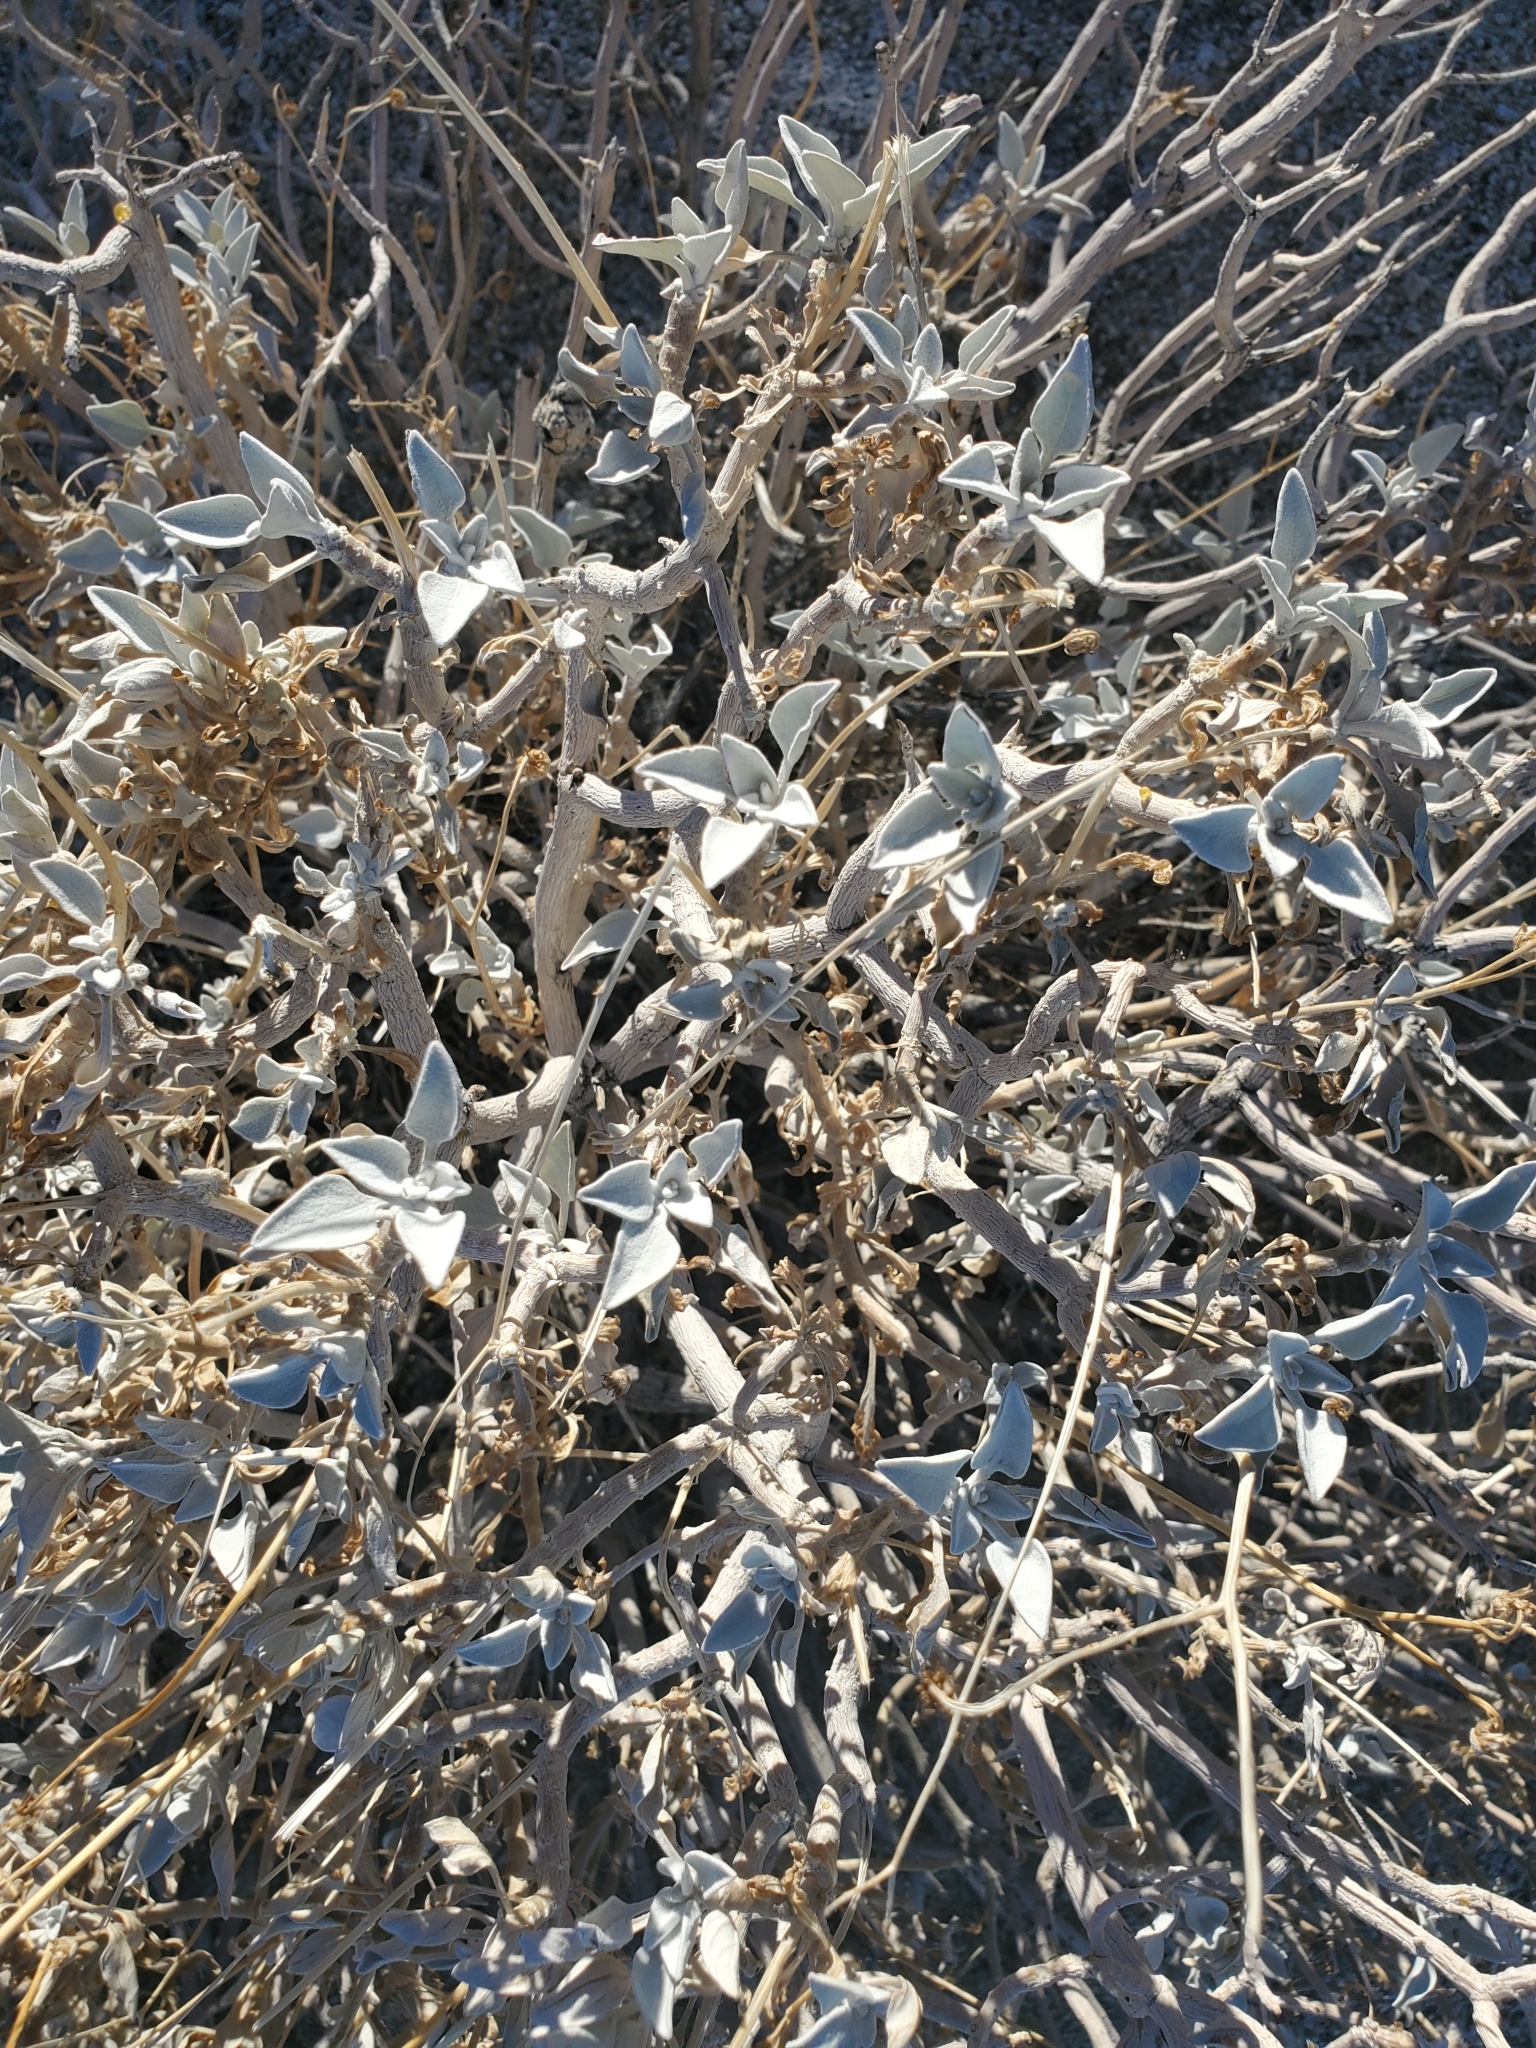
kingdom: Plantae
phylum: Tracheophyta
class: Magnoliopsida
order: Asterales
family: Asteraceae
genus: Encelia
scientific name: Encelia farinosa
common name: Brittlebush
